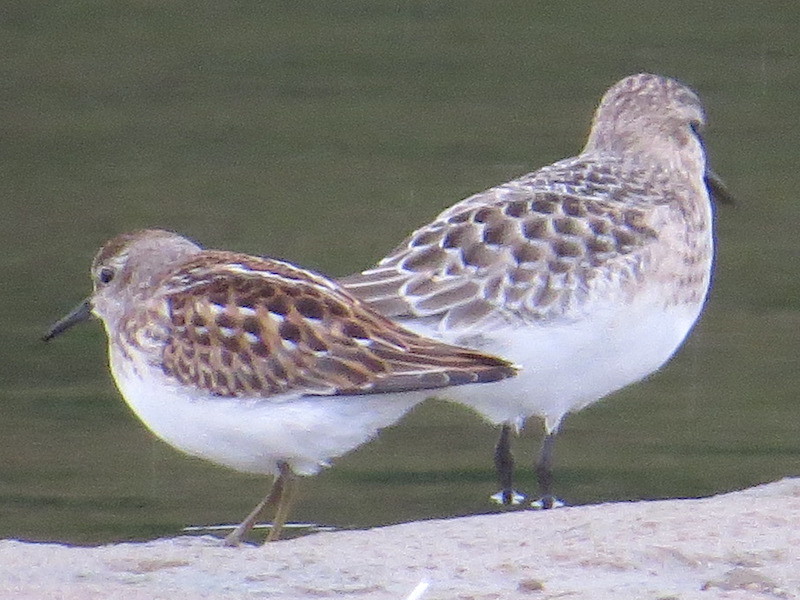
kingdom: Animalia
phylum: Chordata
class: Aves
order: Charadriiformes
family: Scolopacidae
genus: Calidris
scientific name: Calidris bairdii
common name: Baird's sandpiper
